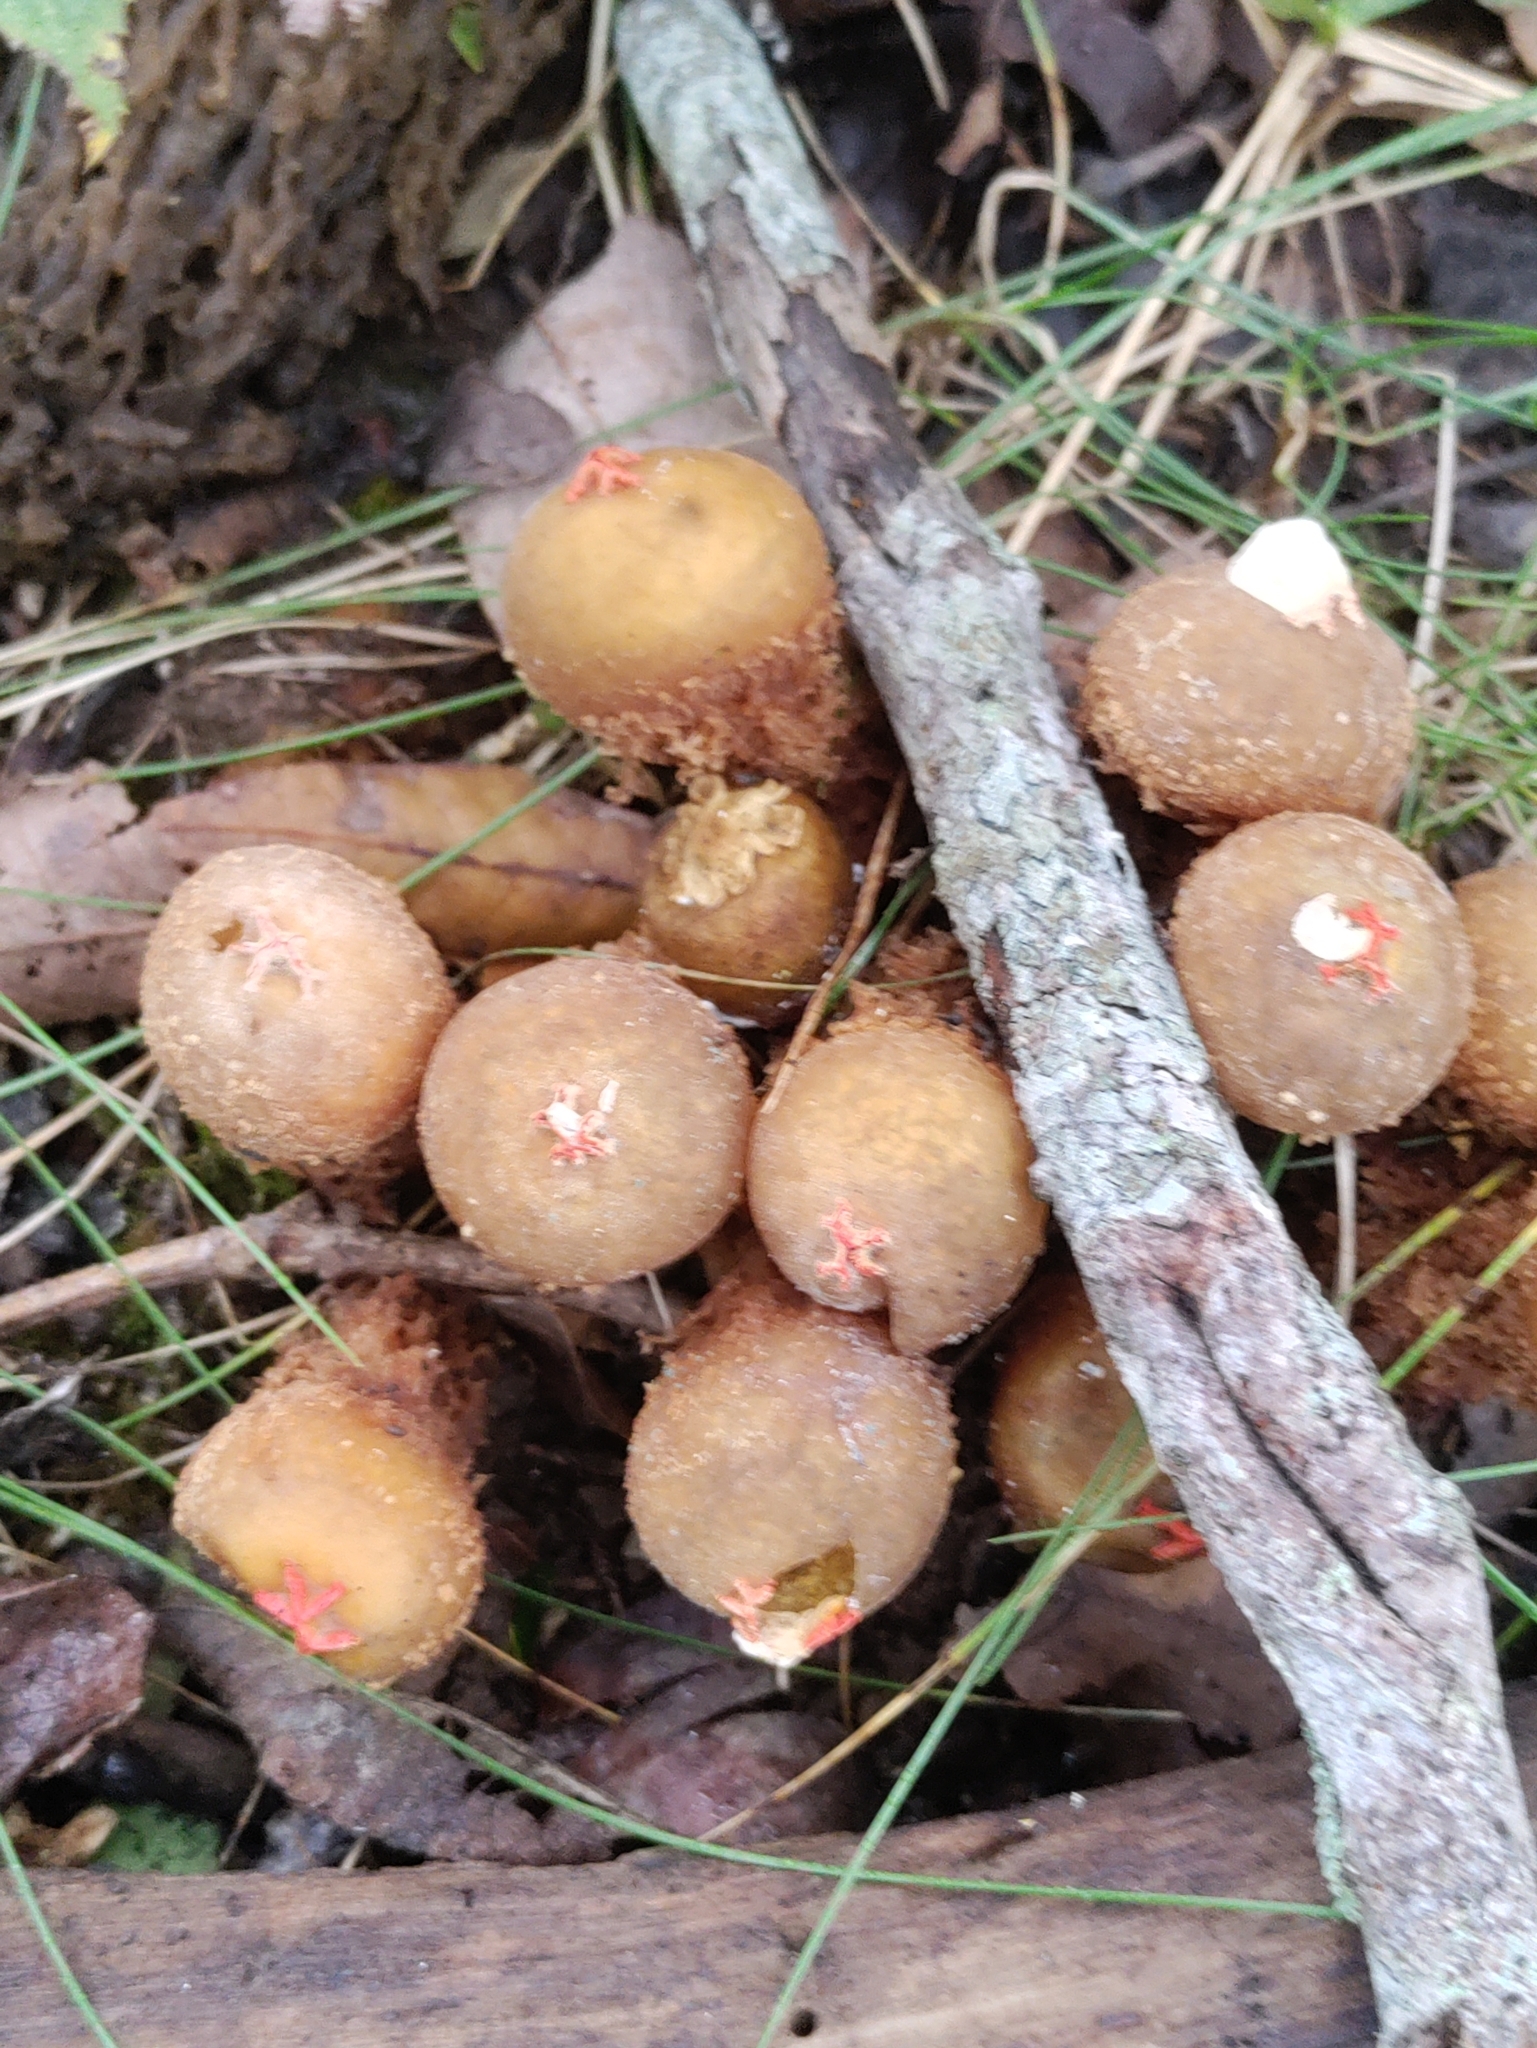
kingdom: Fungi
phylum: Basidiomycota
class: Agaricomycetes
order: Boletales
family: Calostomataceae
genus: Calostoma
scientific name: Calostoma ravenelii
